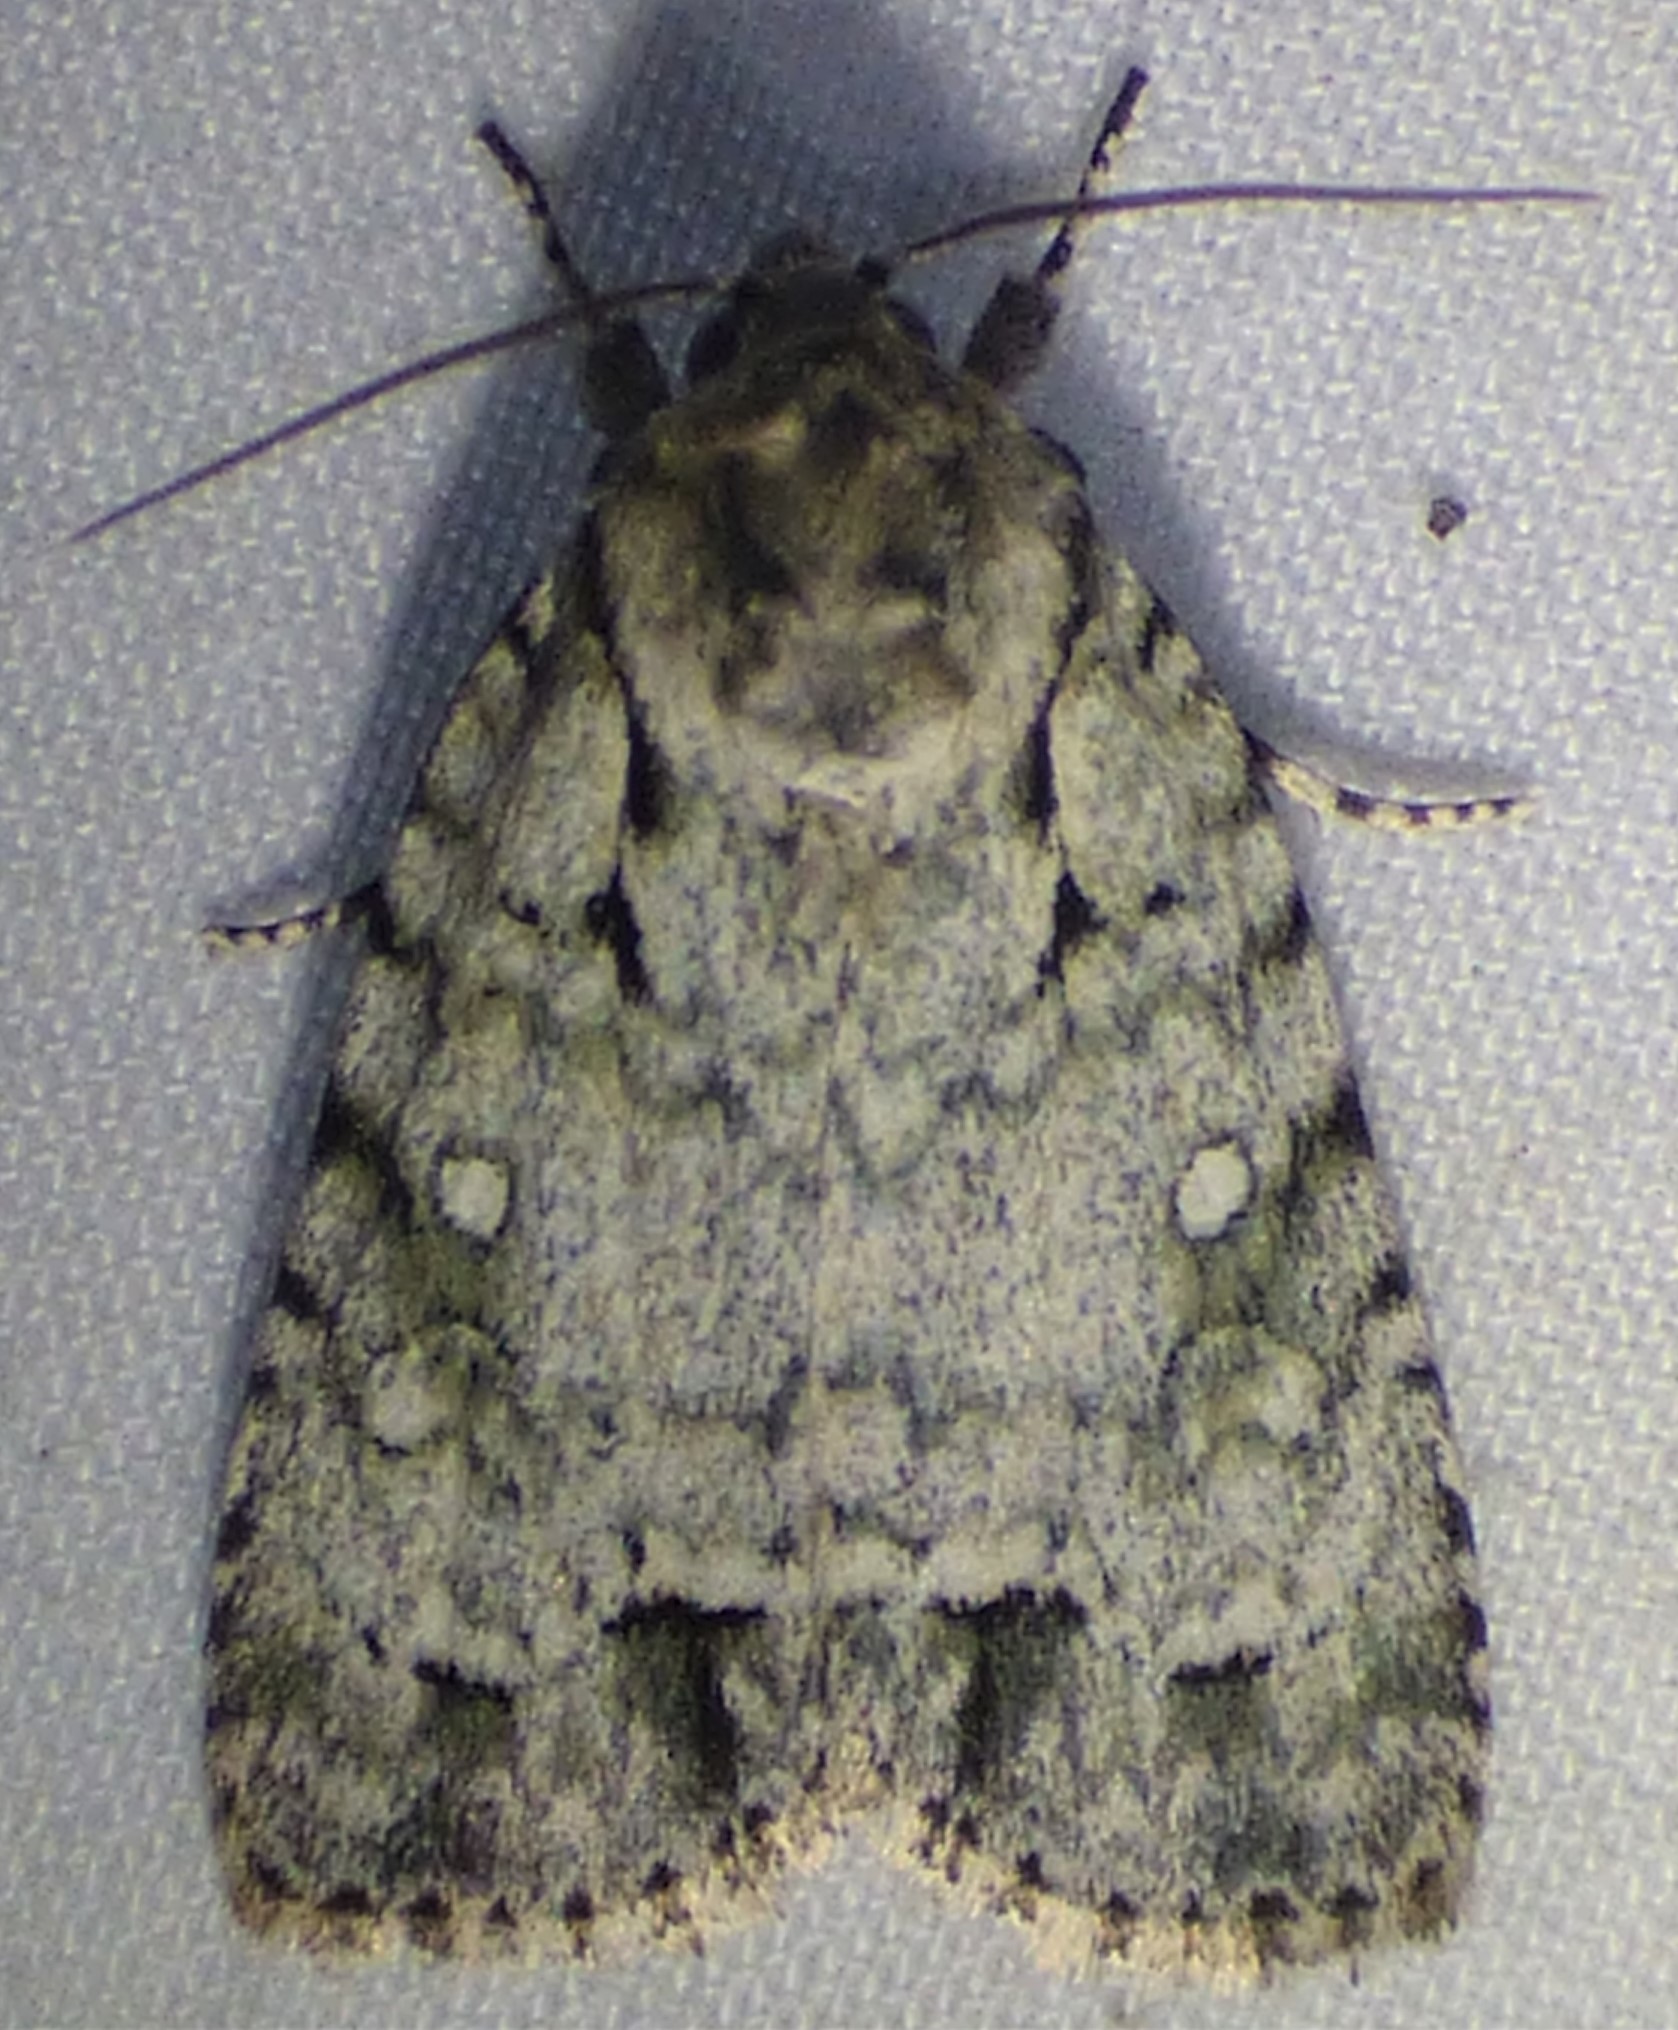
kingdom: Animalia
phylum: Arthropoda
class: Insecta
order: Lepidoptera
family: Noctuidae
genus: Acronicta
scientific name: Acronicta vinnula
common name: Delightful dagger
